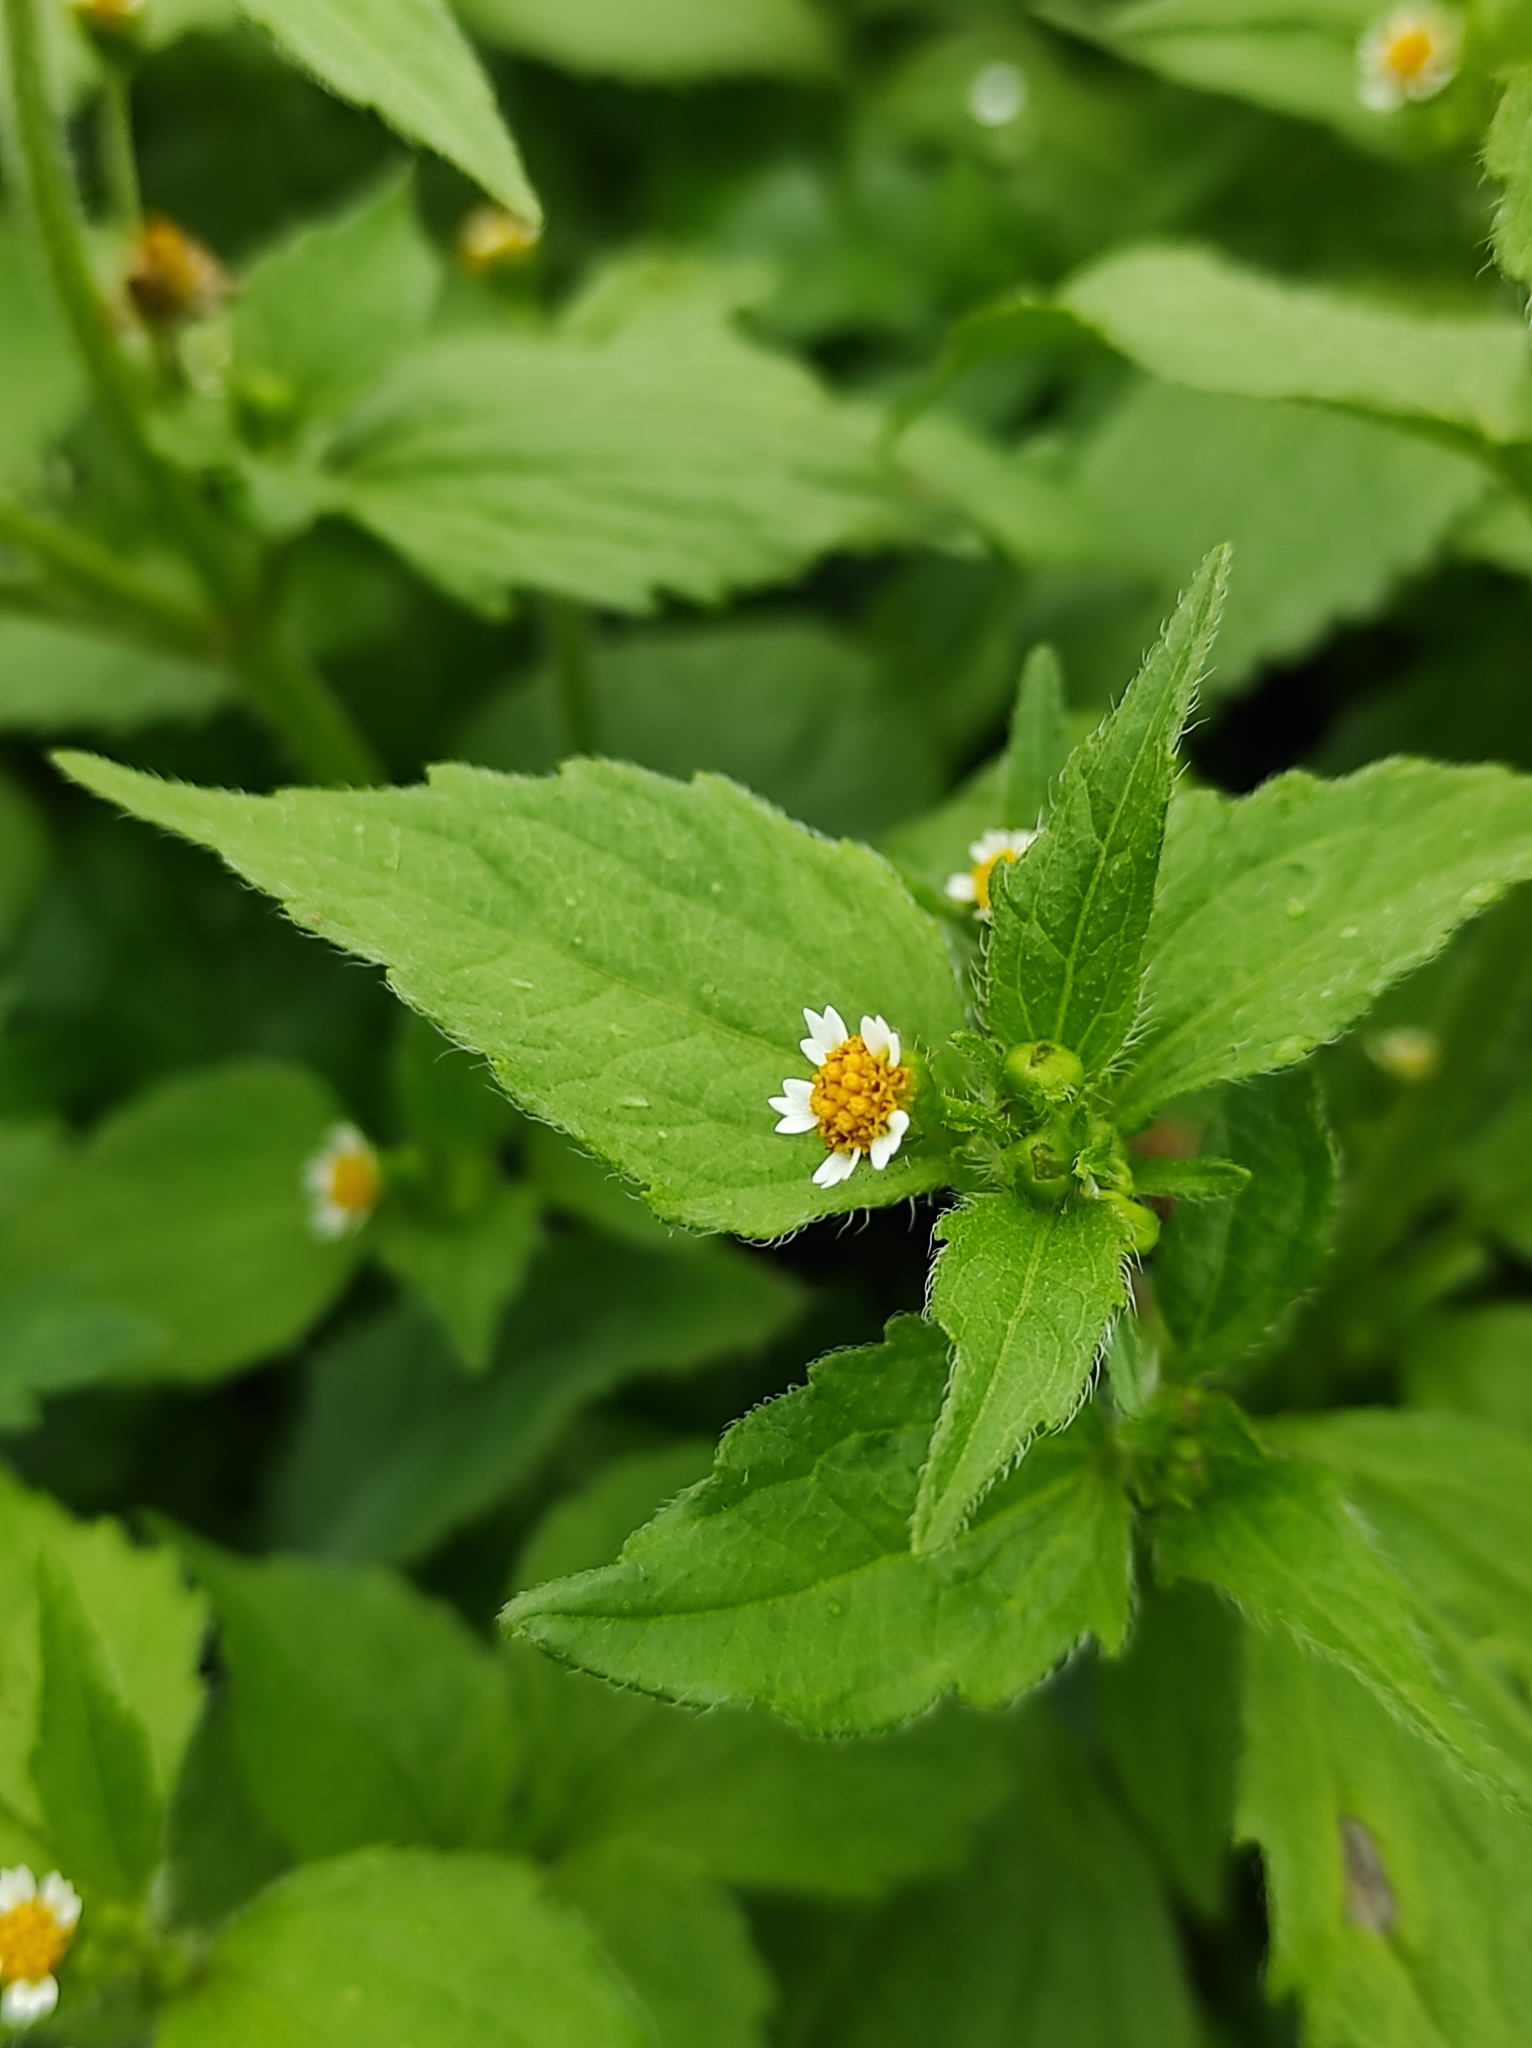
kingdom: Plantae
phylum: Tracheophyta
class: Magnoliopsida
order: Asterales
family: Asteraceae
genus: Galinsoga
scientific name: Galinsoga quadriradiata
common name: Shaggy soldier
